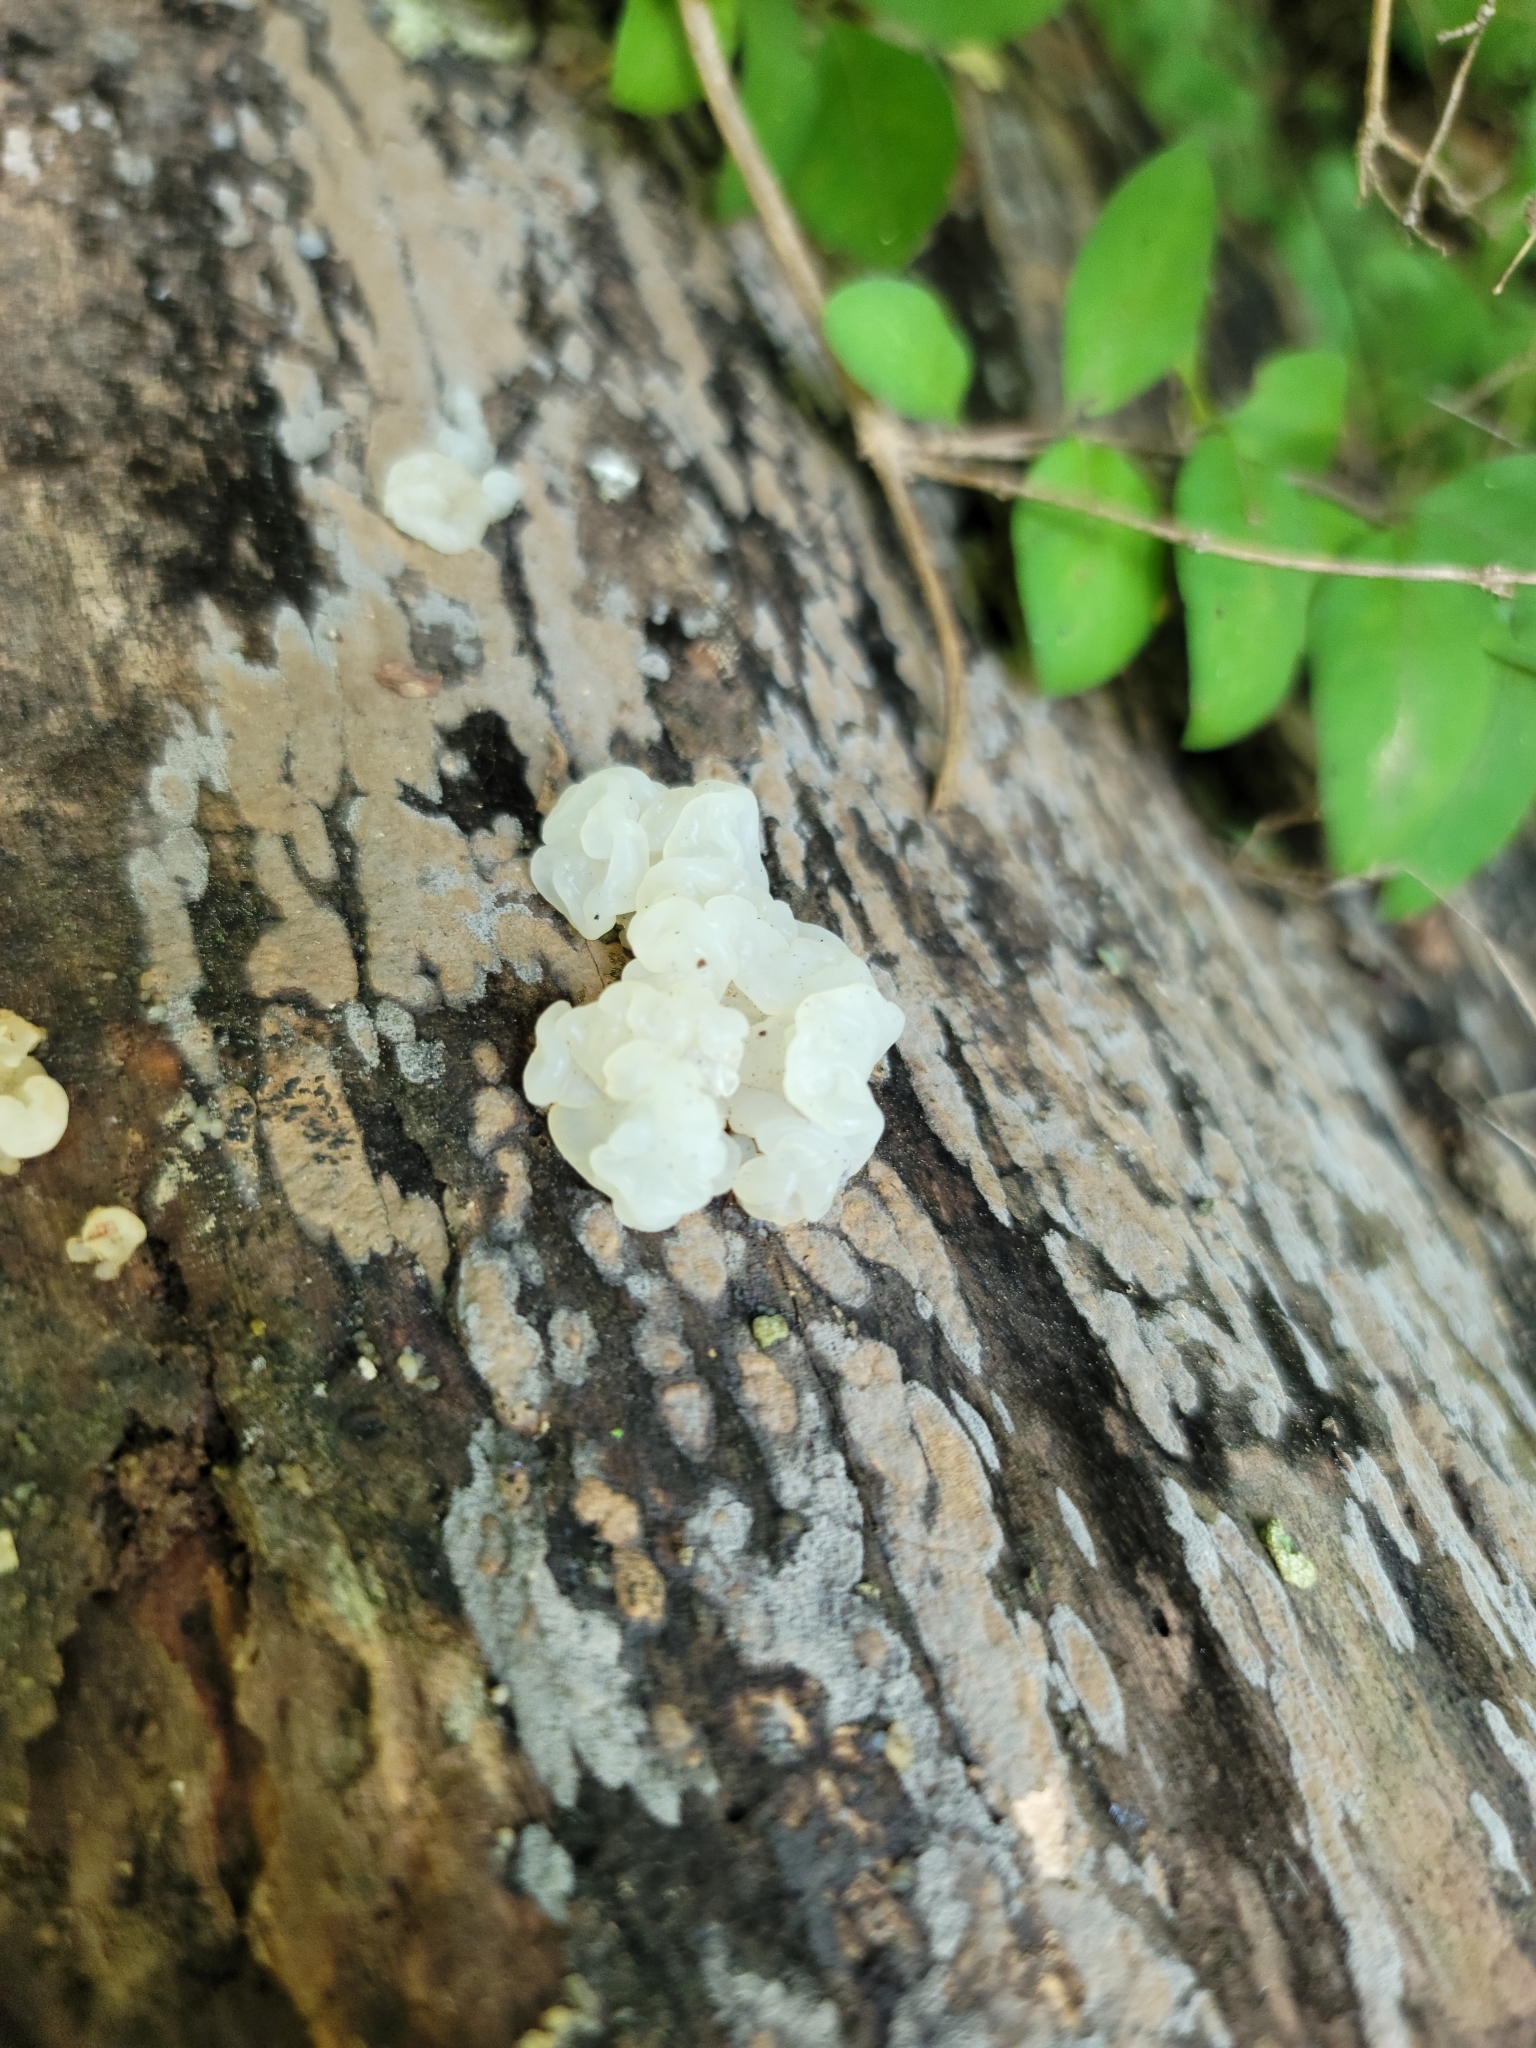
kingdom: Fungi
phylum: Basidiomycota
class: Agaricomycetes
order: Auriculariales
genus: Ductifera
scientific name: Ductifera pululahuana
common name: White jelly fungus
